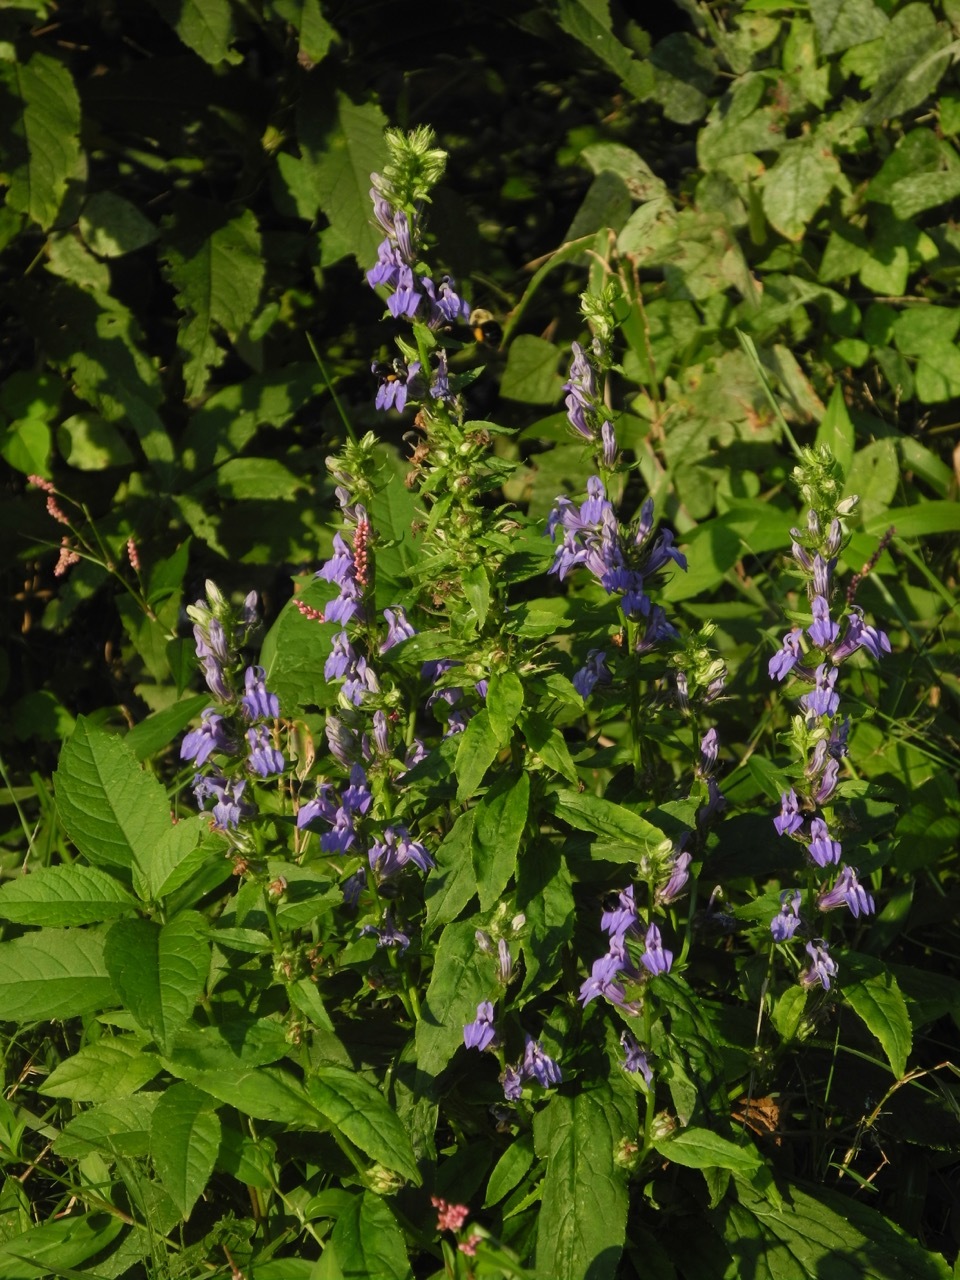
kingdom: Plantae
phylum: Tracheophyta
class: Magnoliopsida
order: Asterales
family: Campanulaceae
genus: Lobelia
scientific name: Lobelia siphilitica
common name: Great lobelia
